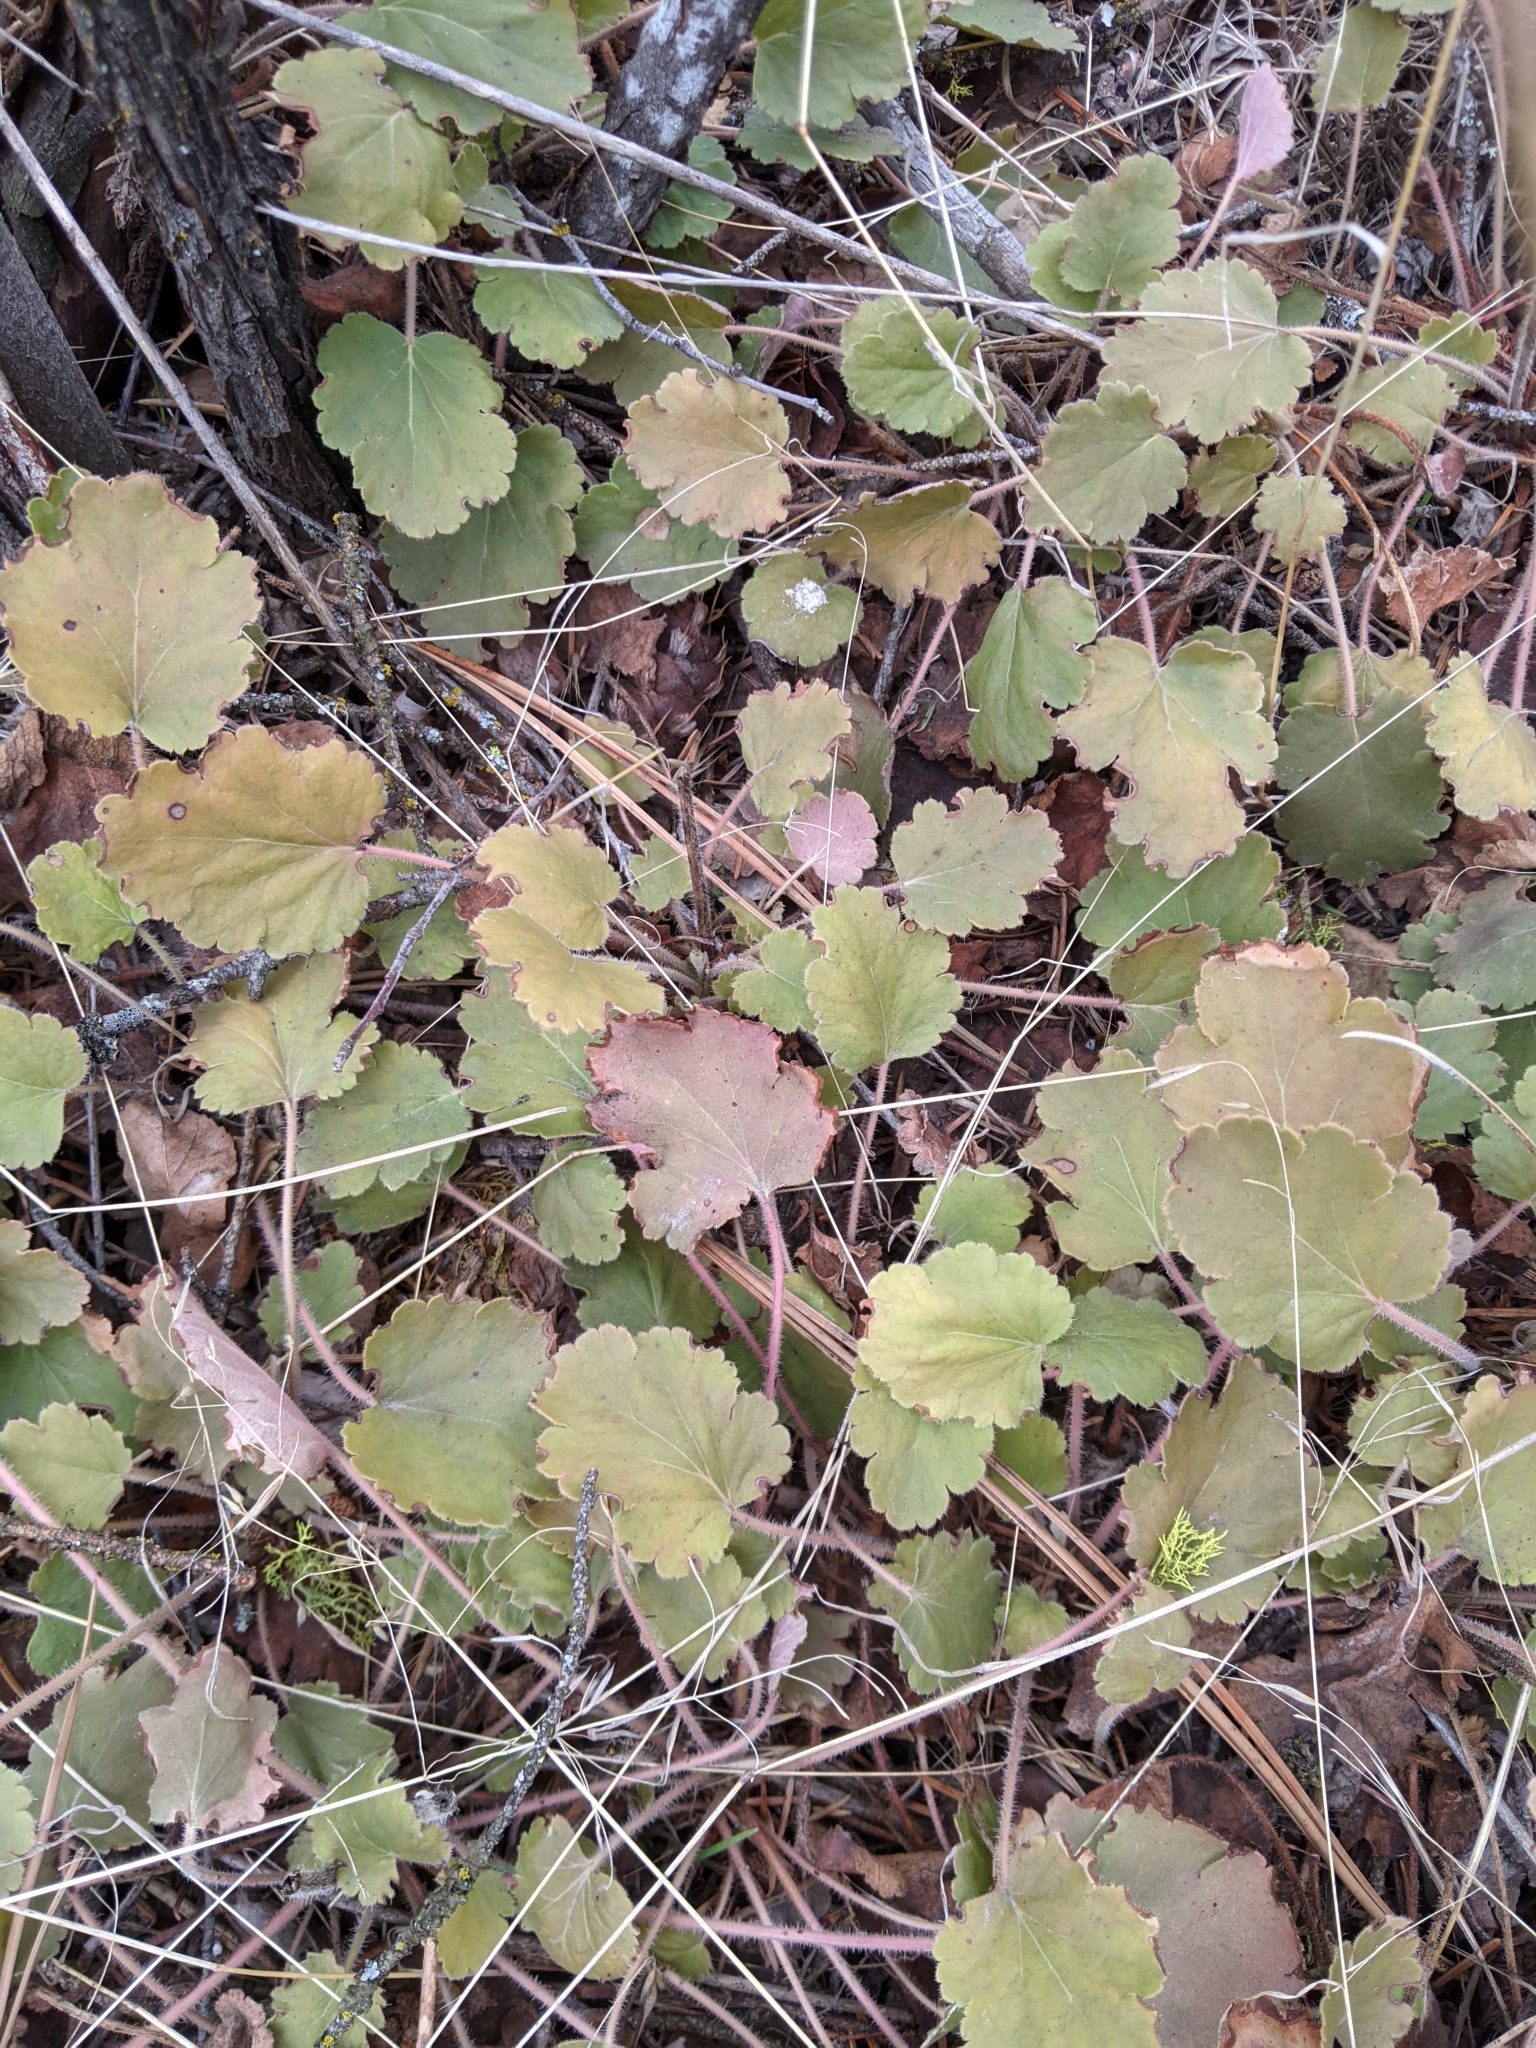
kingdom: Plantae
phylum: Tracheophyta
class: Magnoliopsida
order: Saxifragales
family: Saxifragaceae
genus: Heuchera
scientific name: Heuchera cylindrica
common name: Mat alumroot
